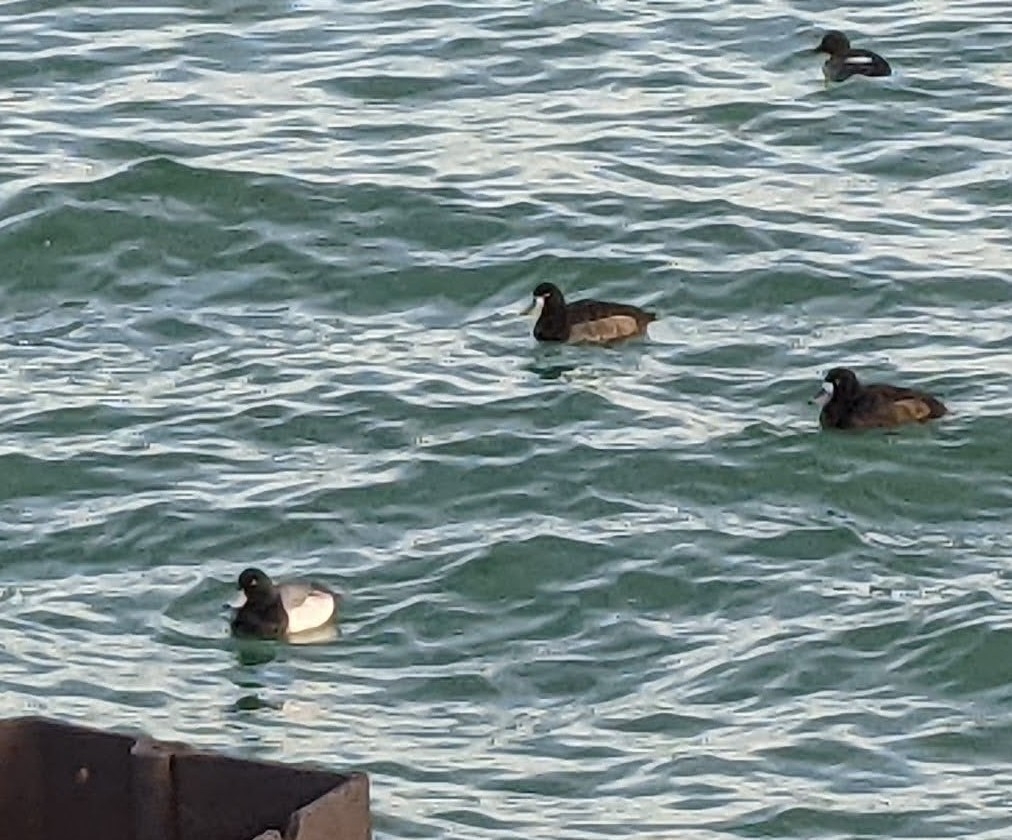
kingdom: Animalia
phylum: Chordata
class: Aves
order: Anseriformes
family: Anatidae
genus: Aythya
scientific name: Aythya marila
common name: Greater scaup
